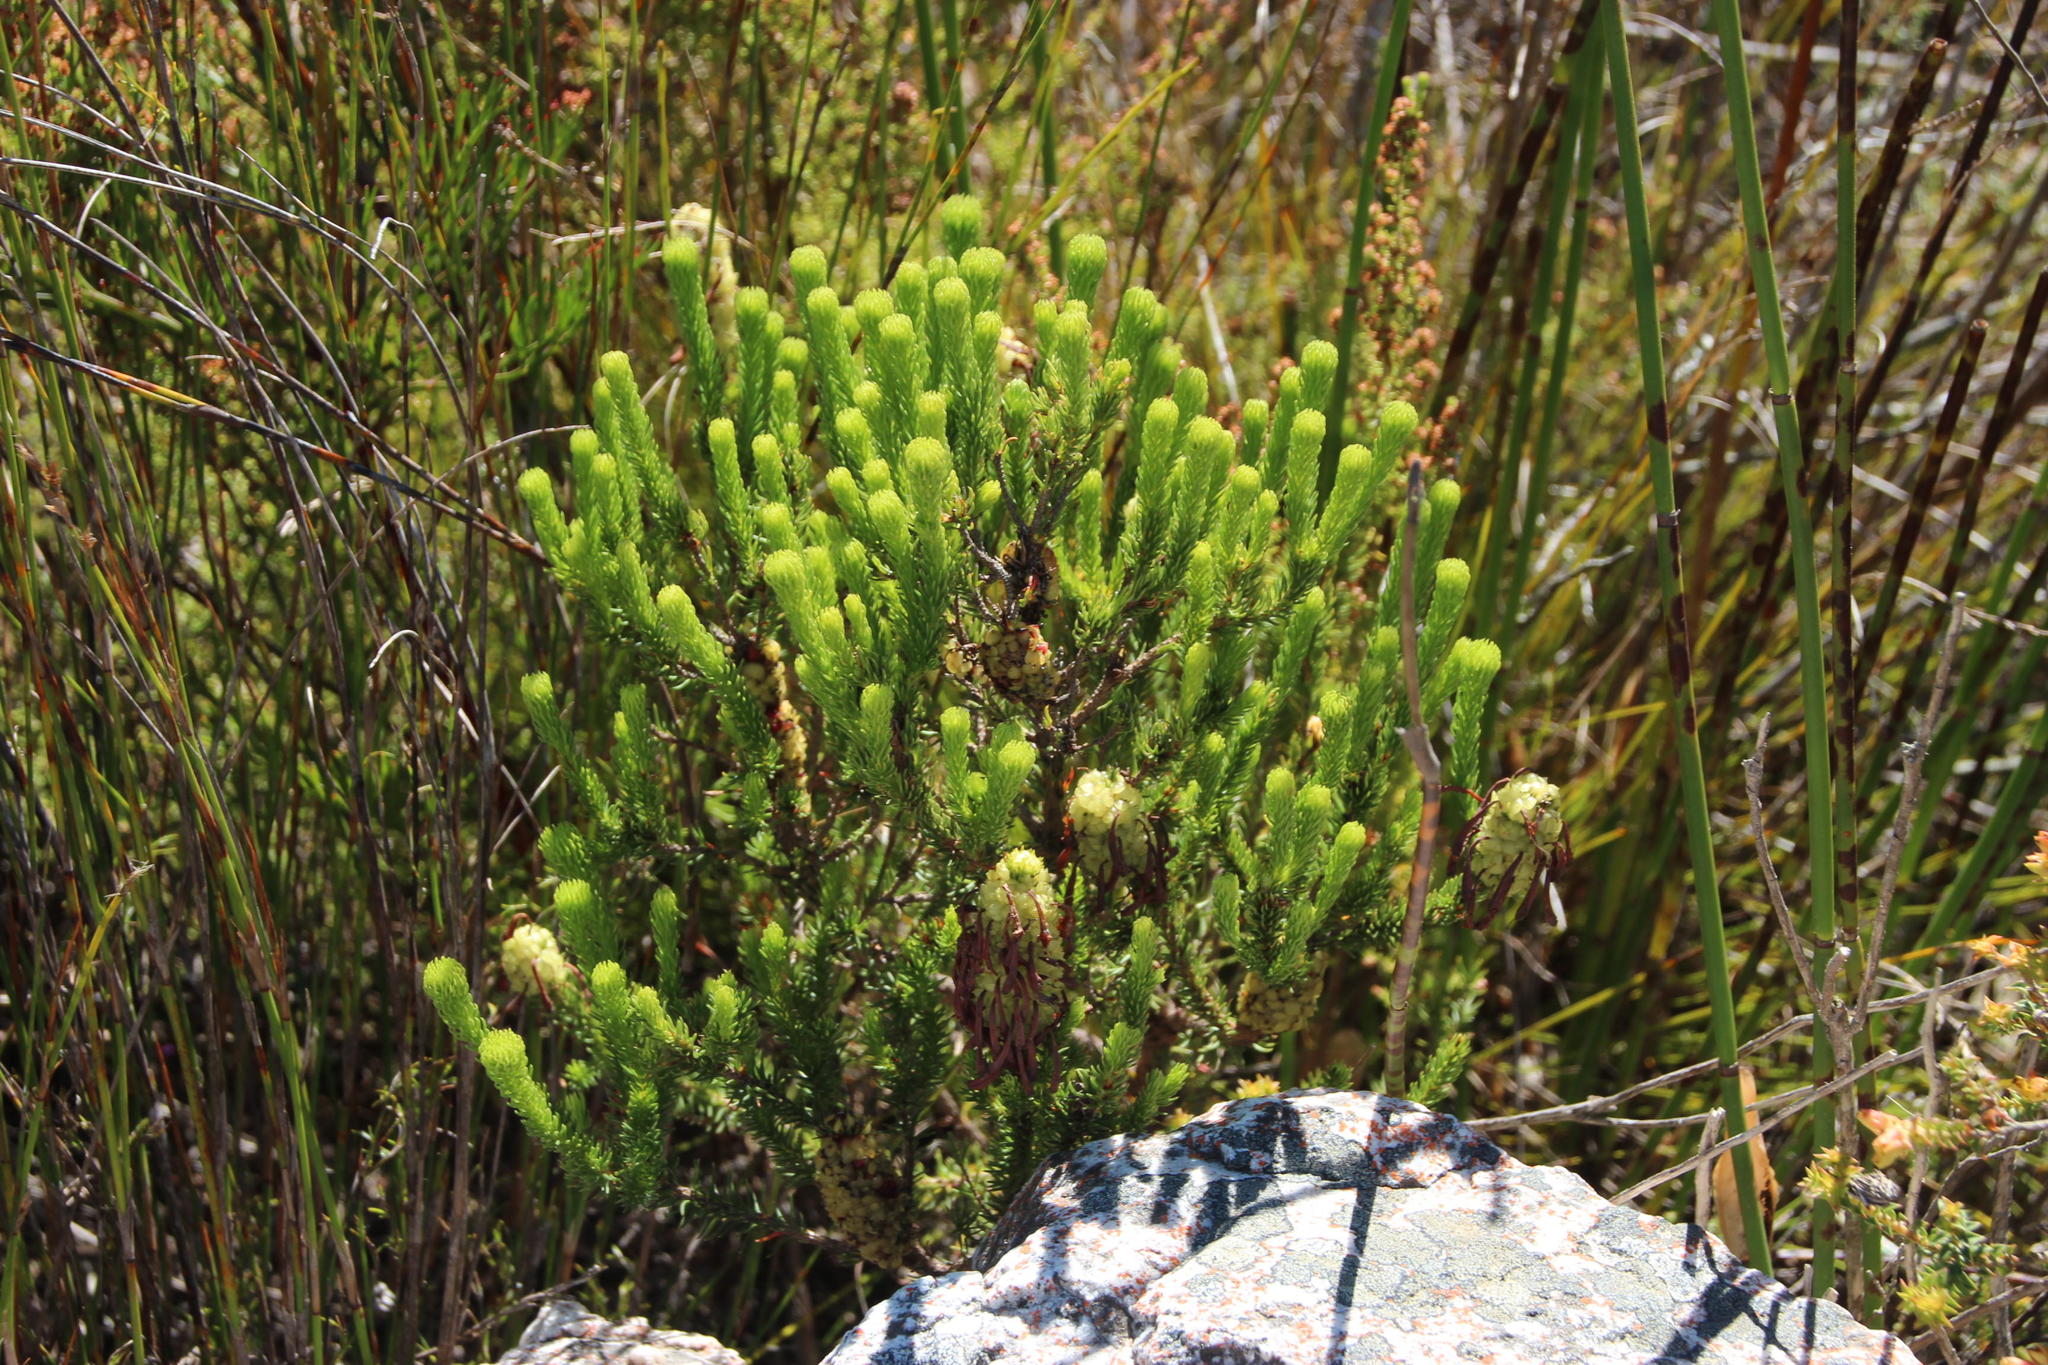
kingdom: Plantae
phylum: Tracheophyta
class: Magnoliopsida
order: Ericales
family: Ericaceae
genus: Erica
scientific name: Erica sessiliflora
